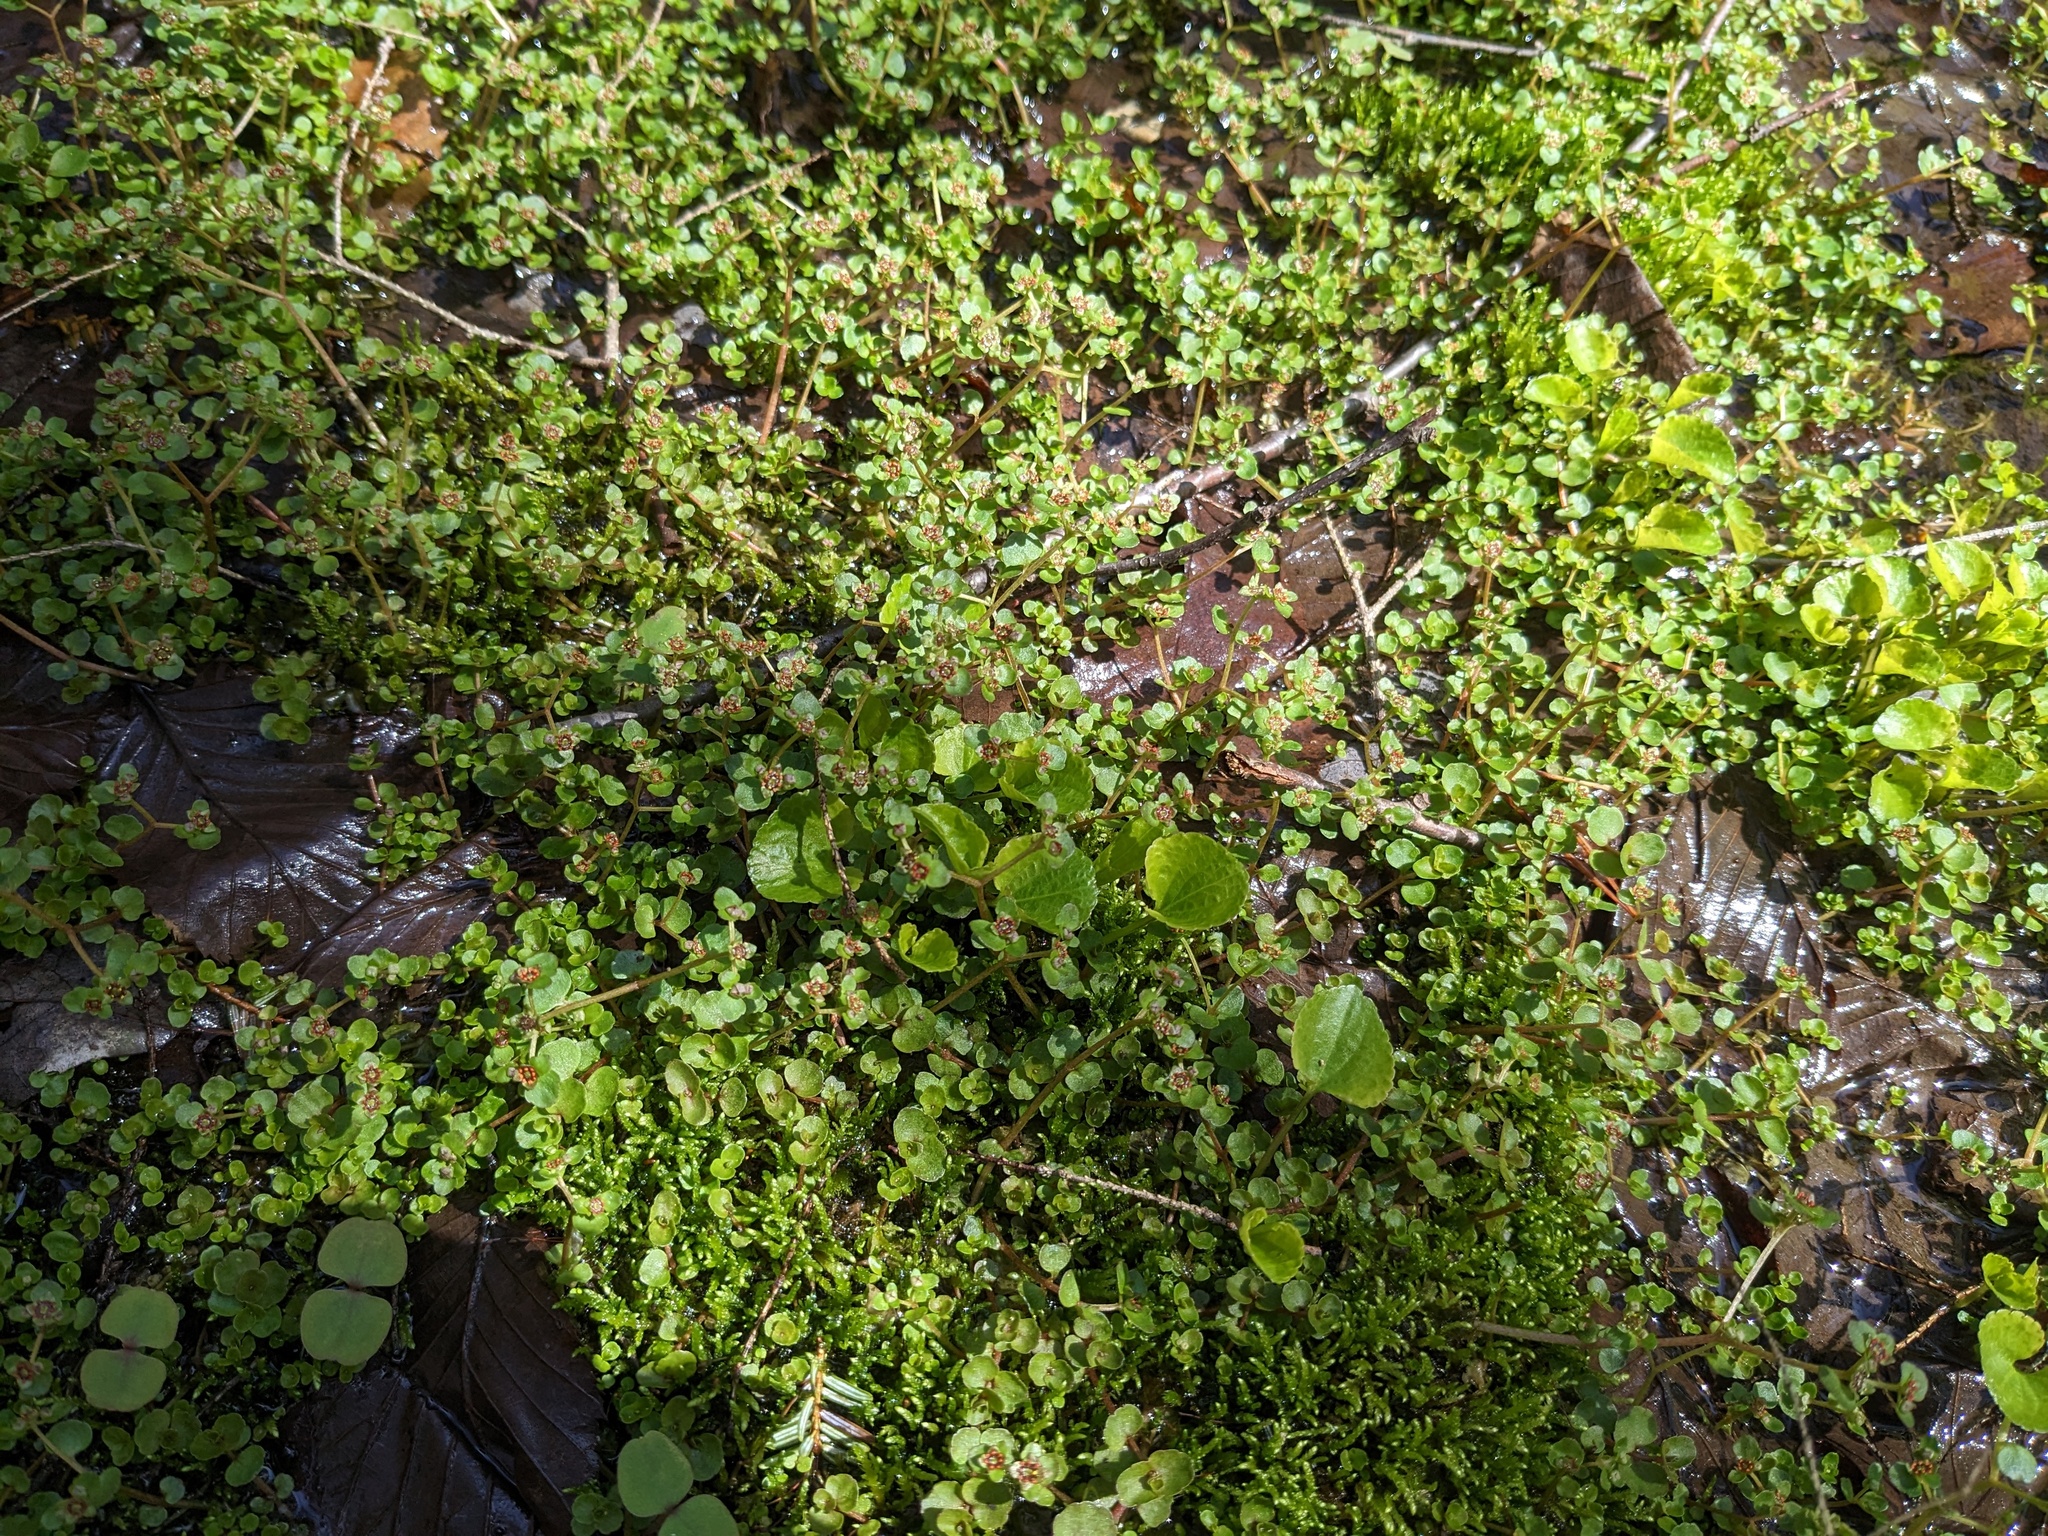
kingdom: Plantae
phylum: Tracheophyta
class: Magnoliopsida
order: Saxifragales
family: Saxifragaceae
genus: Chrysosplenium
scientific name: Chrysosplenium americanum
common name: American golden-saxifrage
